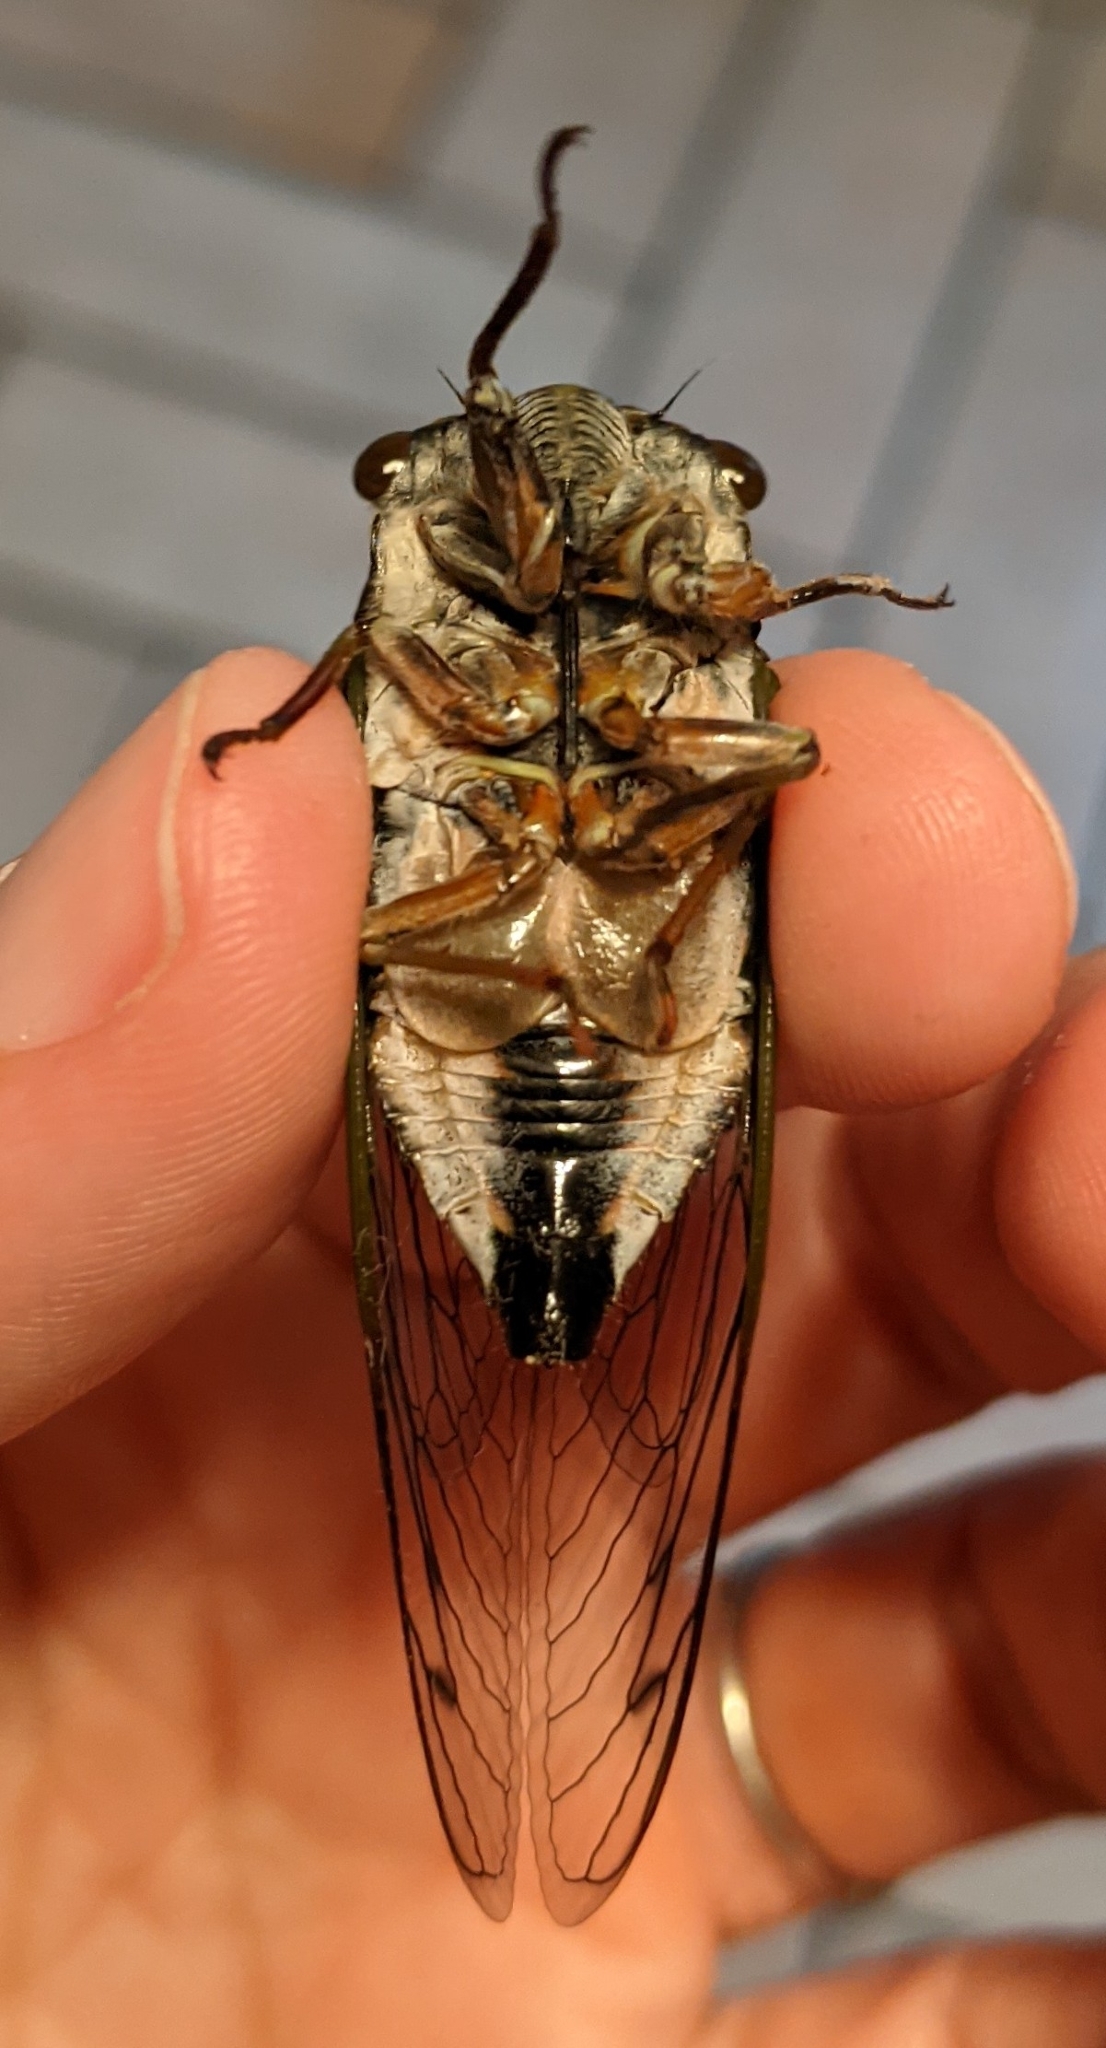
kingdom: Animalia
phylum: Arthropoda
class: Insecta
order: Hemiptera
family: Cicadidae
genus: Neotibicen
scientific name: Neotibicen lyricen
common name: Lyric cicada
